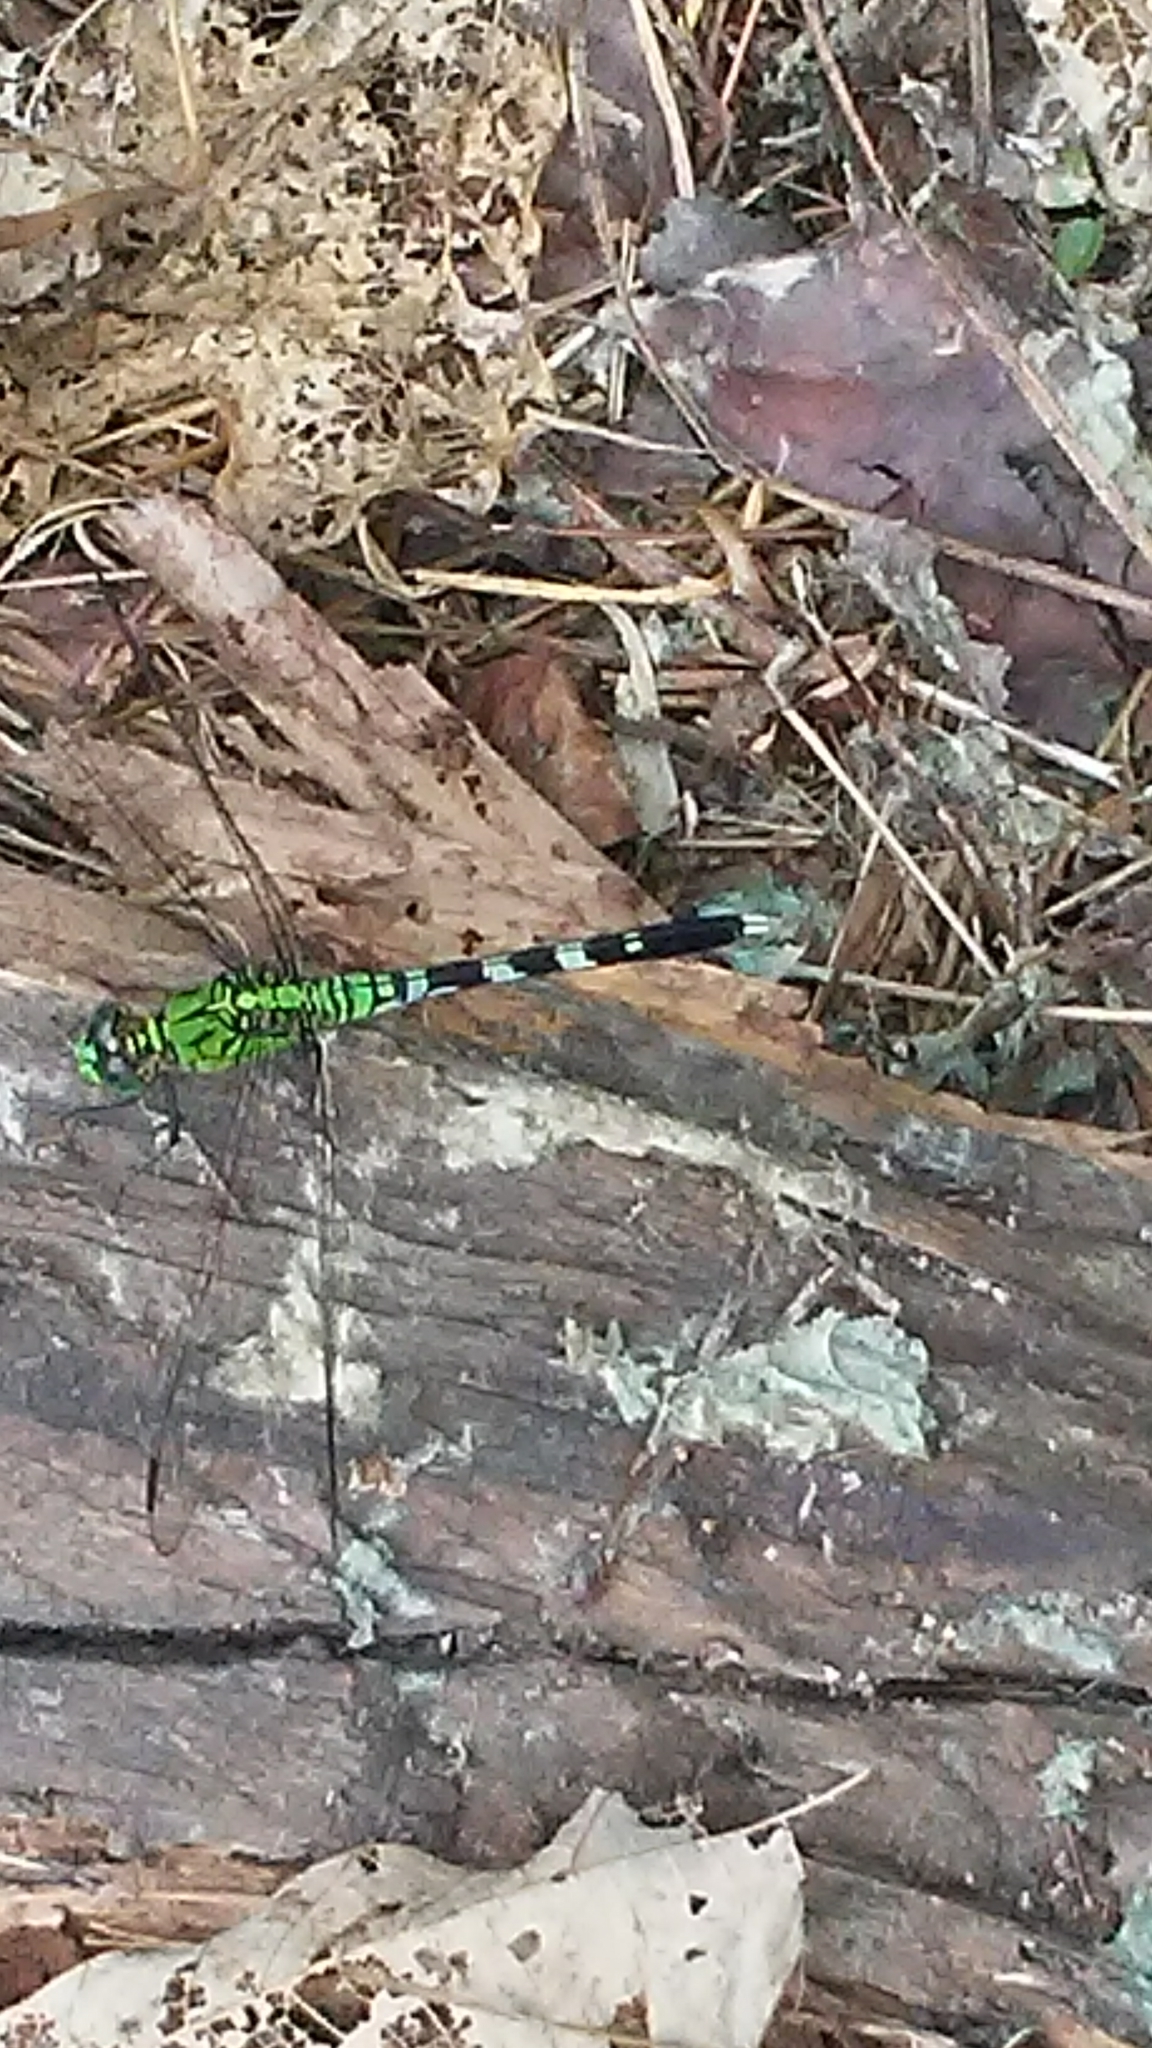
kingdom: Animalia
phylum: Arthropoda
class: Insecta
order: Odonata
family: Libellulidae
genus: Erythemis
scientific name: Erythemis simplicicollis
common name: Eastern pondhawk
